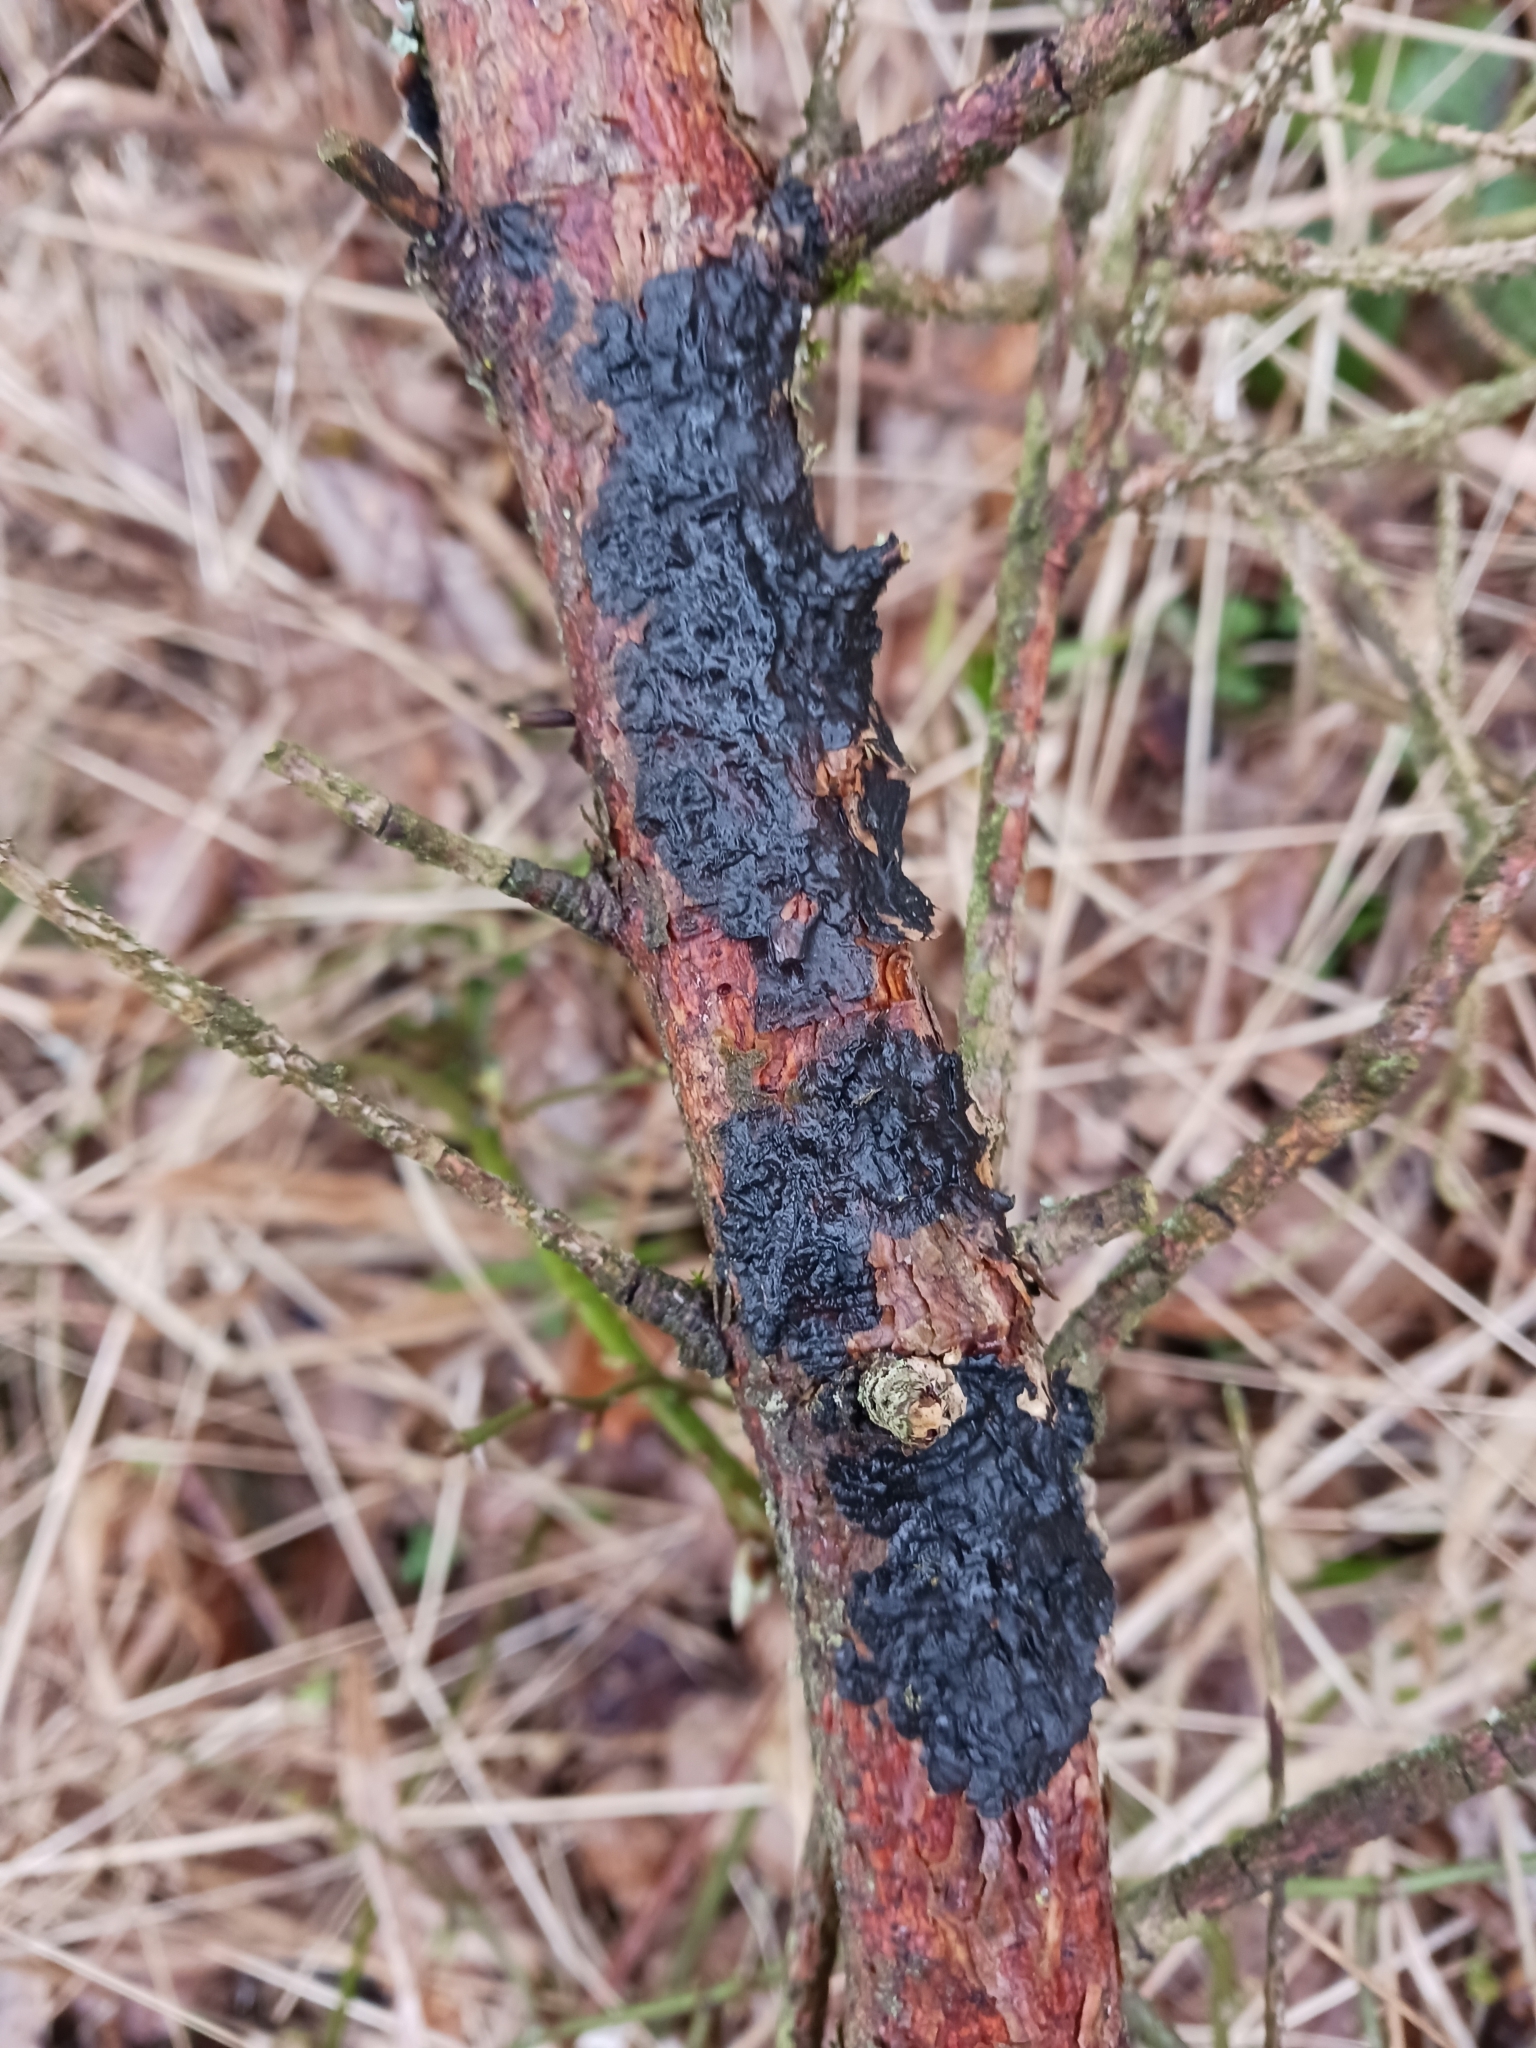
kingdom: Fungi
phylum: Basidiomycota
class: Agaricomycetes
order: Auriculariales
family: Auriculariaceae
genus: Exidia
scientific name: Exidia pithya
